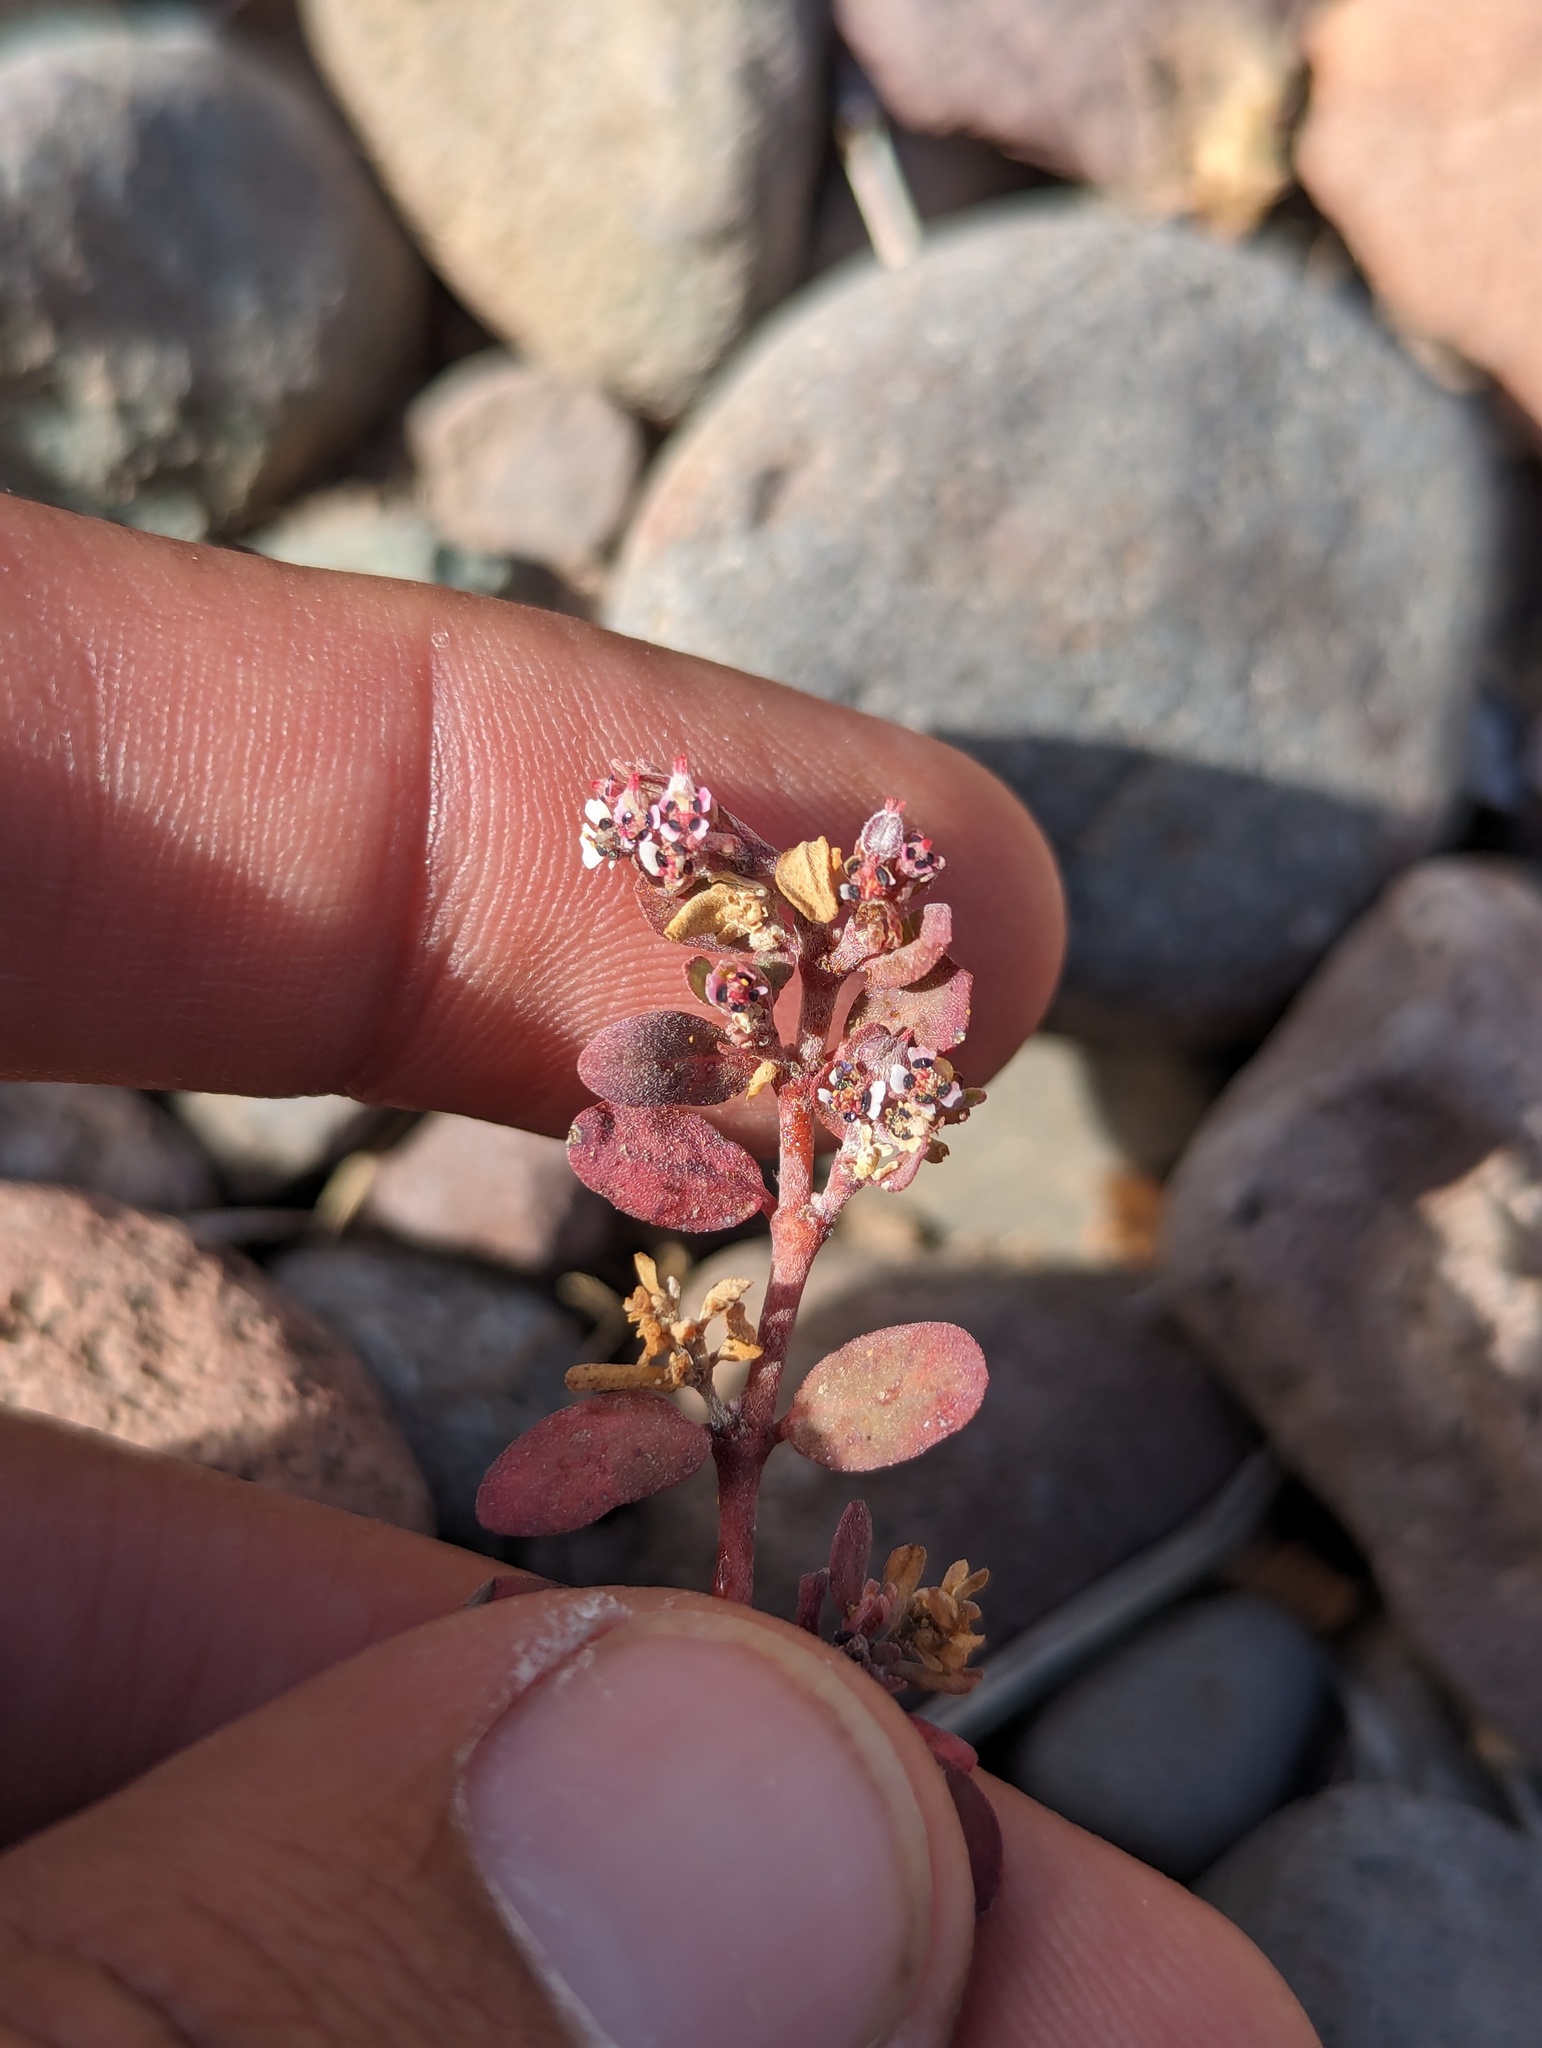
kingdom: Plantae
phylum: Tracheophyta
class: Magnoliopsida
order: Malpighiales
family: Euphorbiaceae
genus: Euphorbia
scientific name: Euphorbia pediculifera
